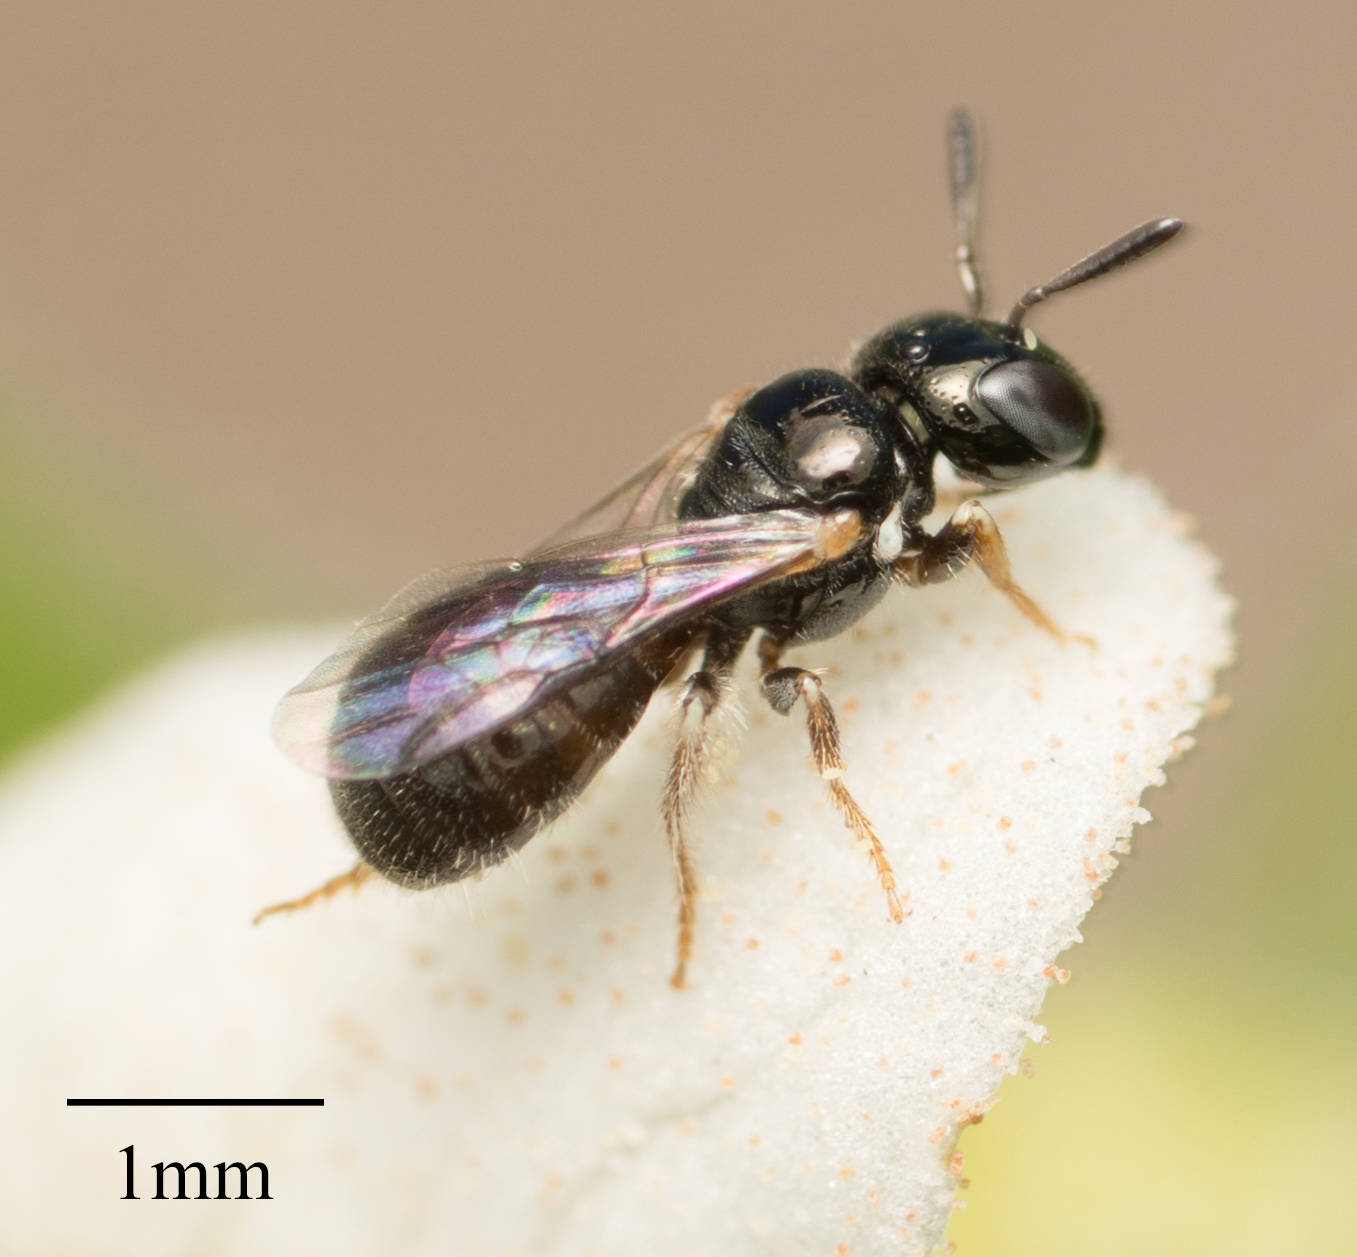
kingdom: Animalia
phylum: Arthropoda
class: Insecta
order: Hymenoptera
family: Apidae
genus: Ceratina
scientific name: Ceratina arizonensis
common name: Arizona small carpenter bee
